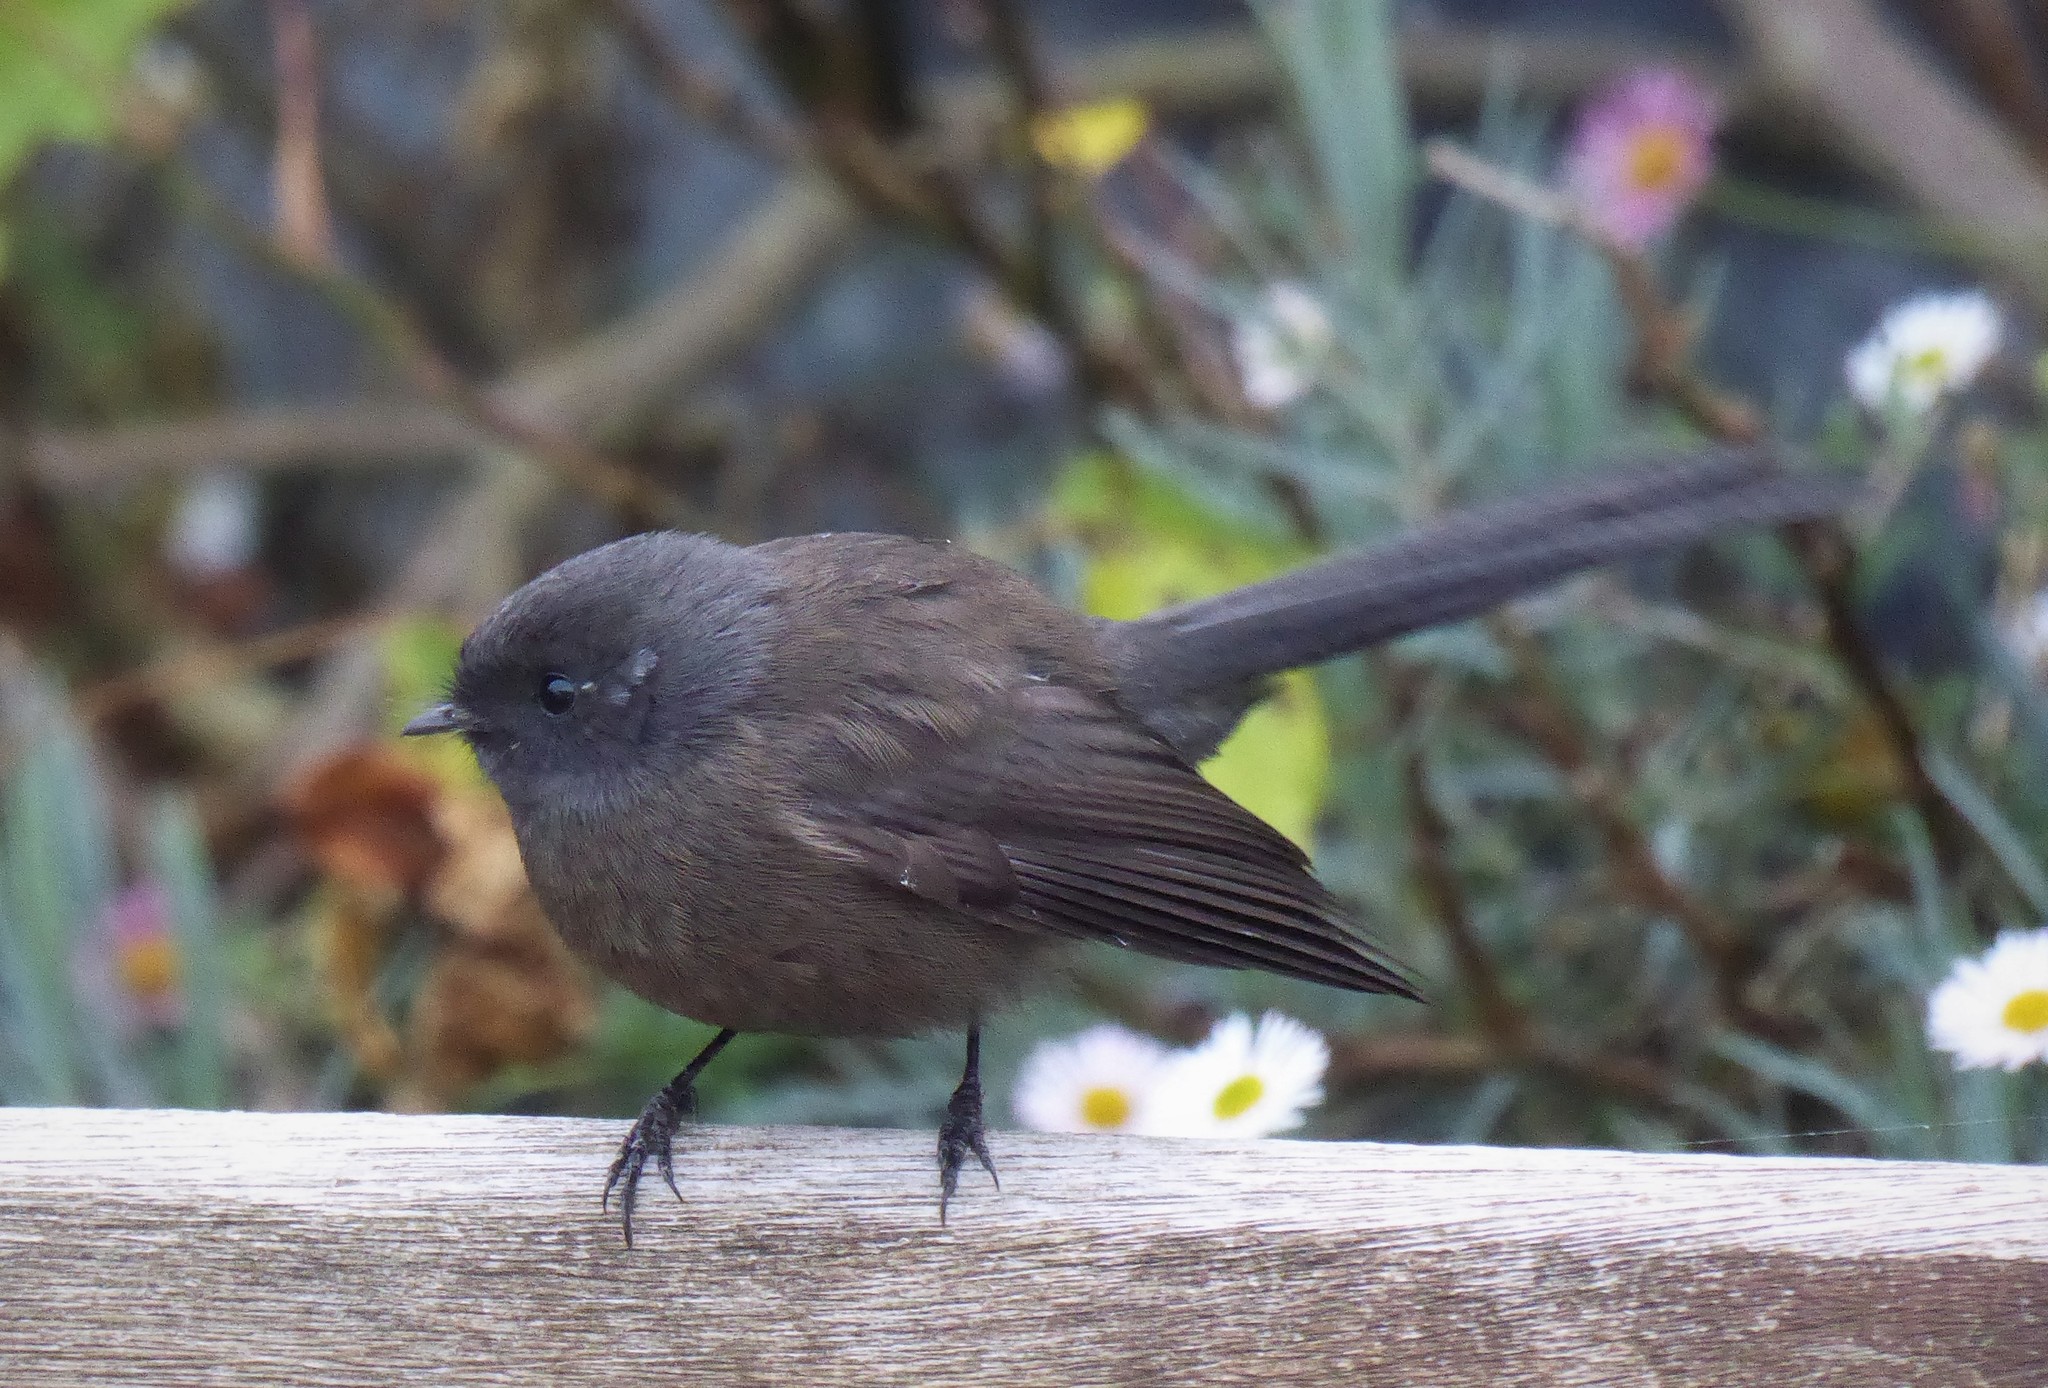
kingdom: Animalia
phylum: Chordata
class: Aves
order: Passeriformes
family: Rhipiduridae
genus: Rhipidura
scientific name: Rhipidura fuliginosa
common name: New zealand fantail
